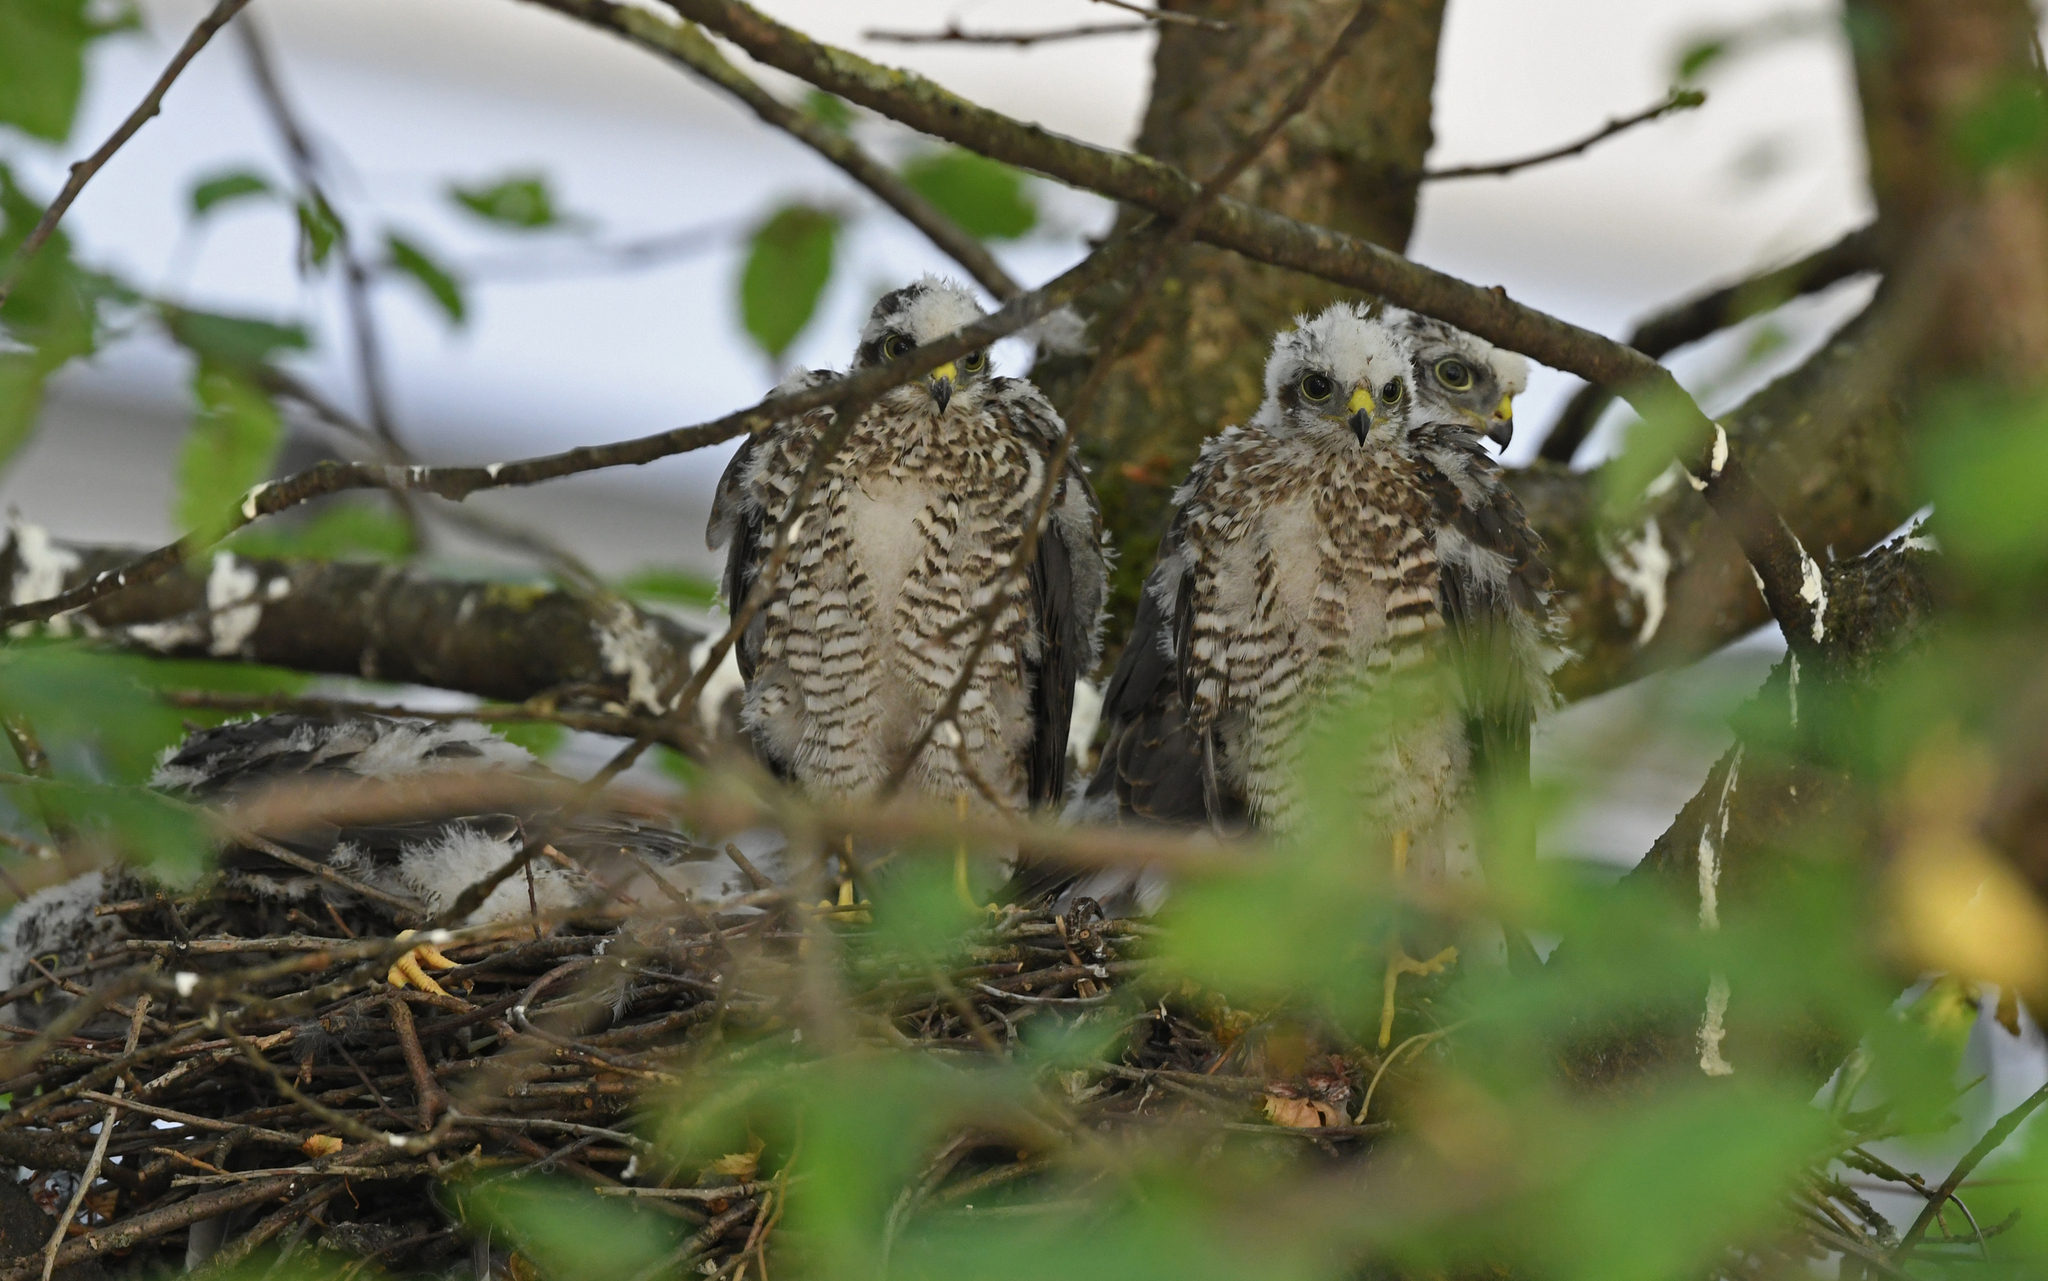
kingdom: Animalia
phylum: Chordata
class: Aves
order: Accipitriformes
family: Accipitridae
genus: Accipiter
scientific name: Accipiter nisus
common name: Eurasian sparrowhawk
